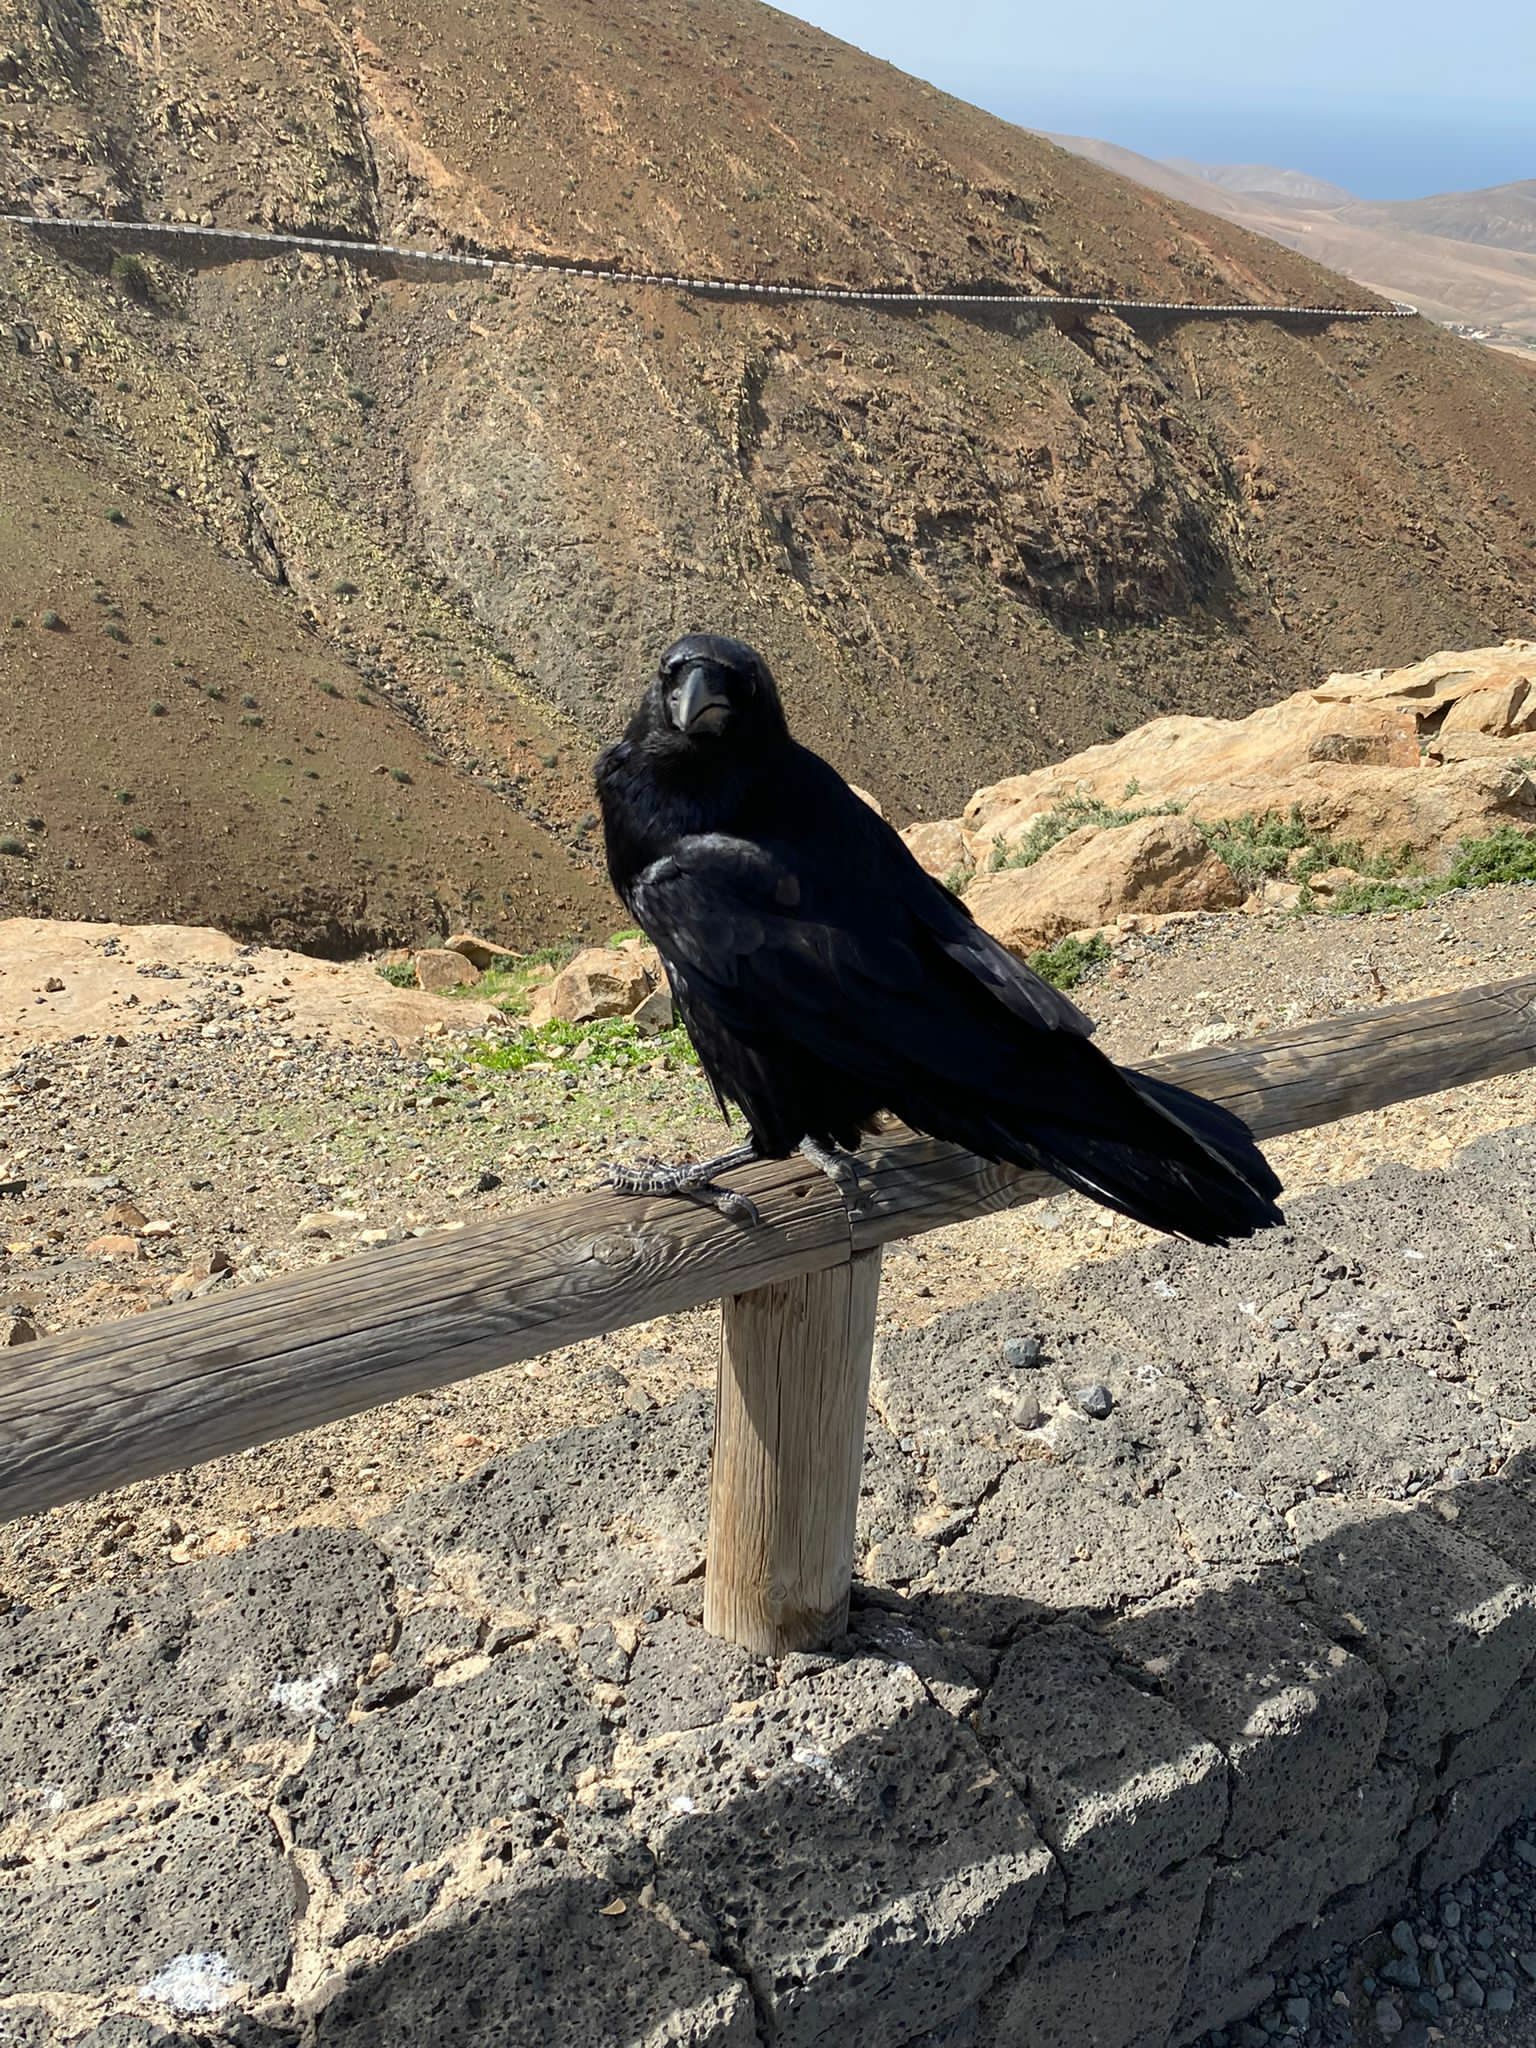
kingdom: Animalia
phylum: Chordata
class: Aves
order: Passeriformes
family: Corvidae
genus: Corvus
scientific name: Corvus corax
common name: Common raven
